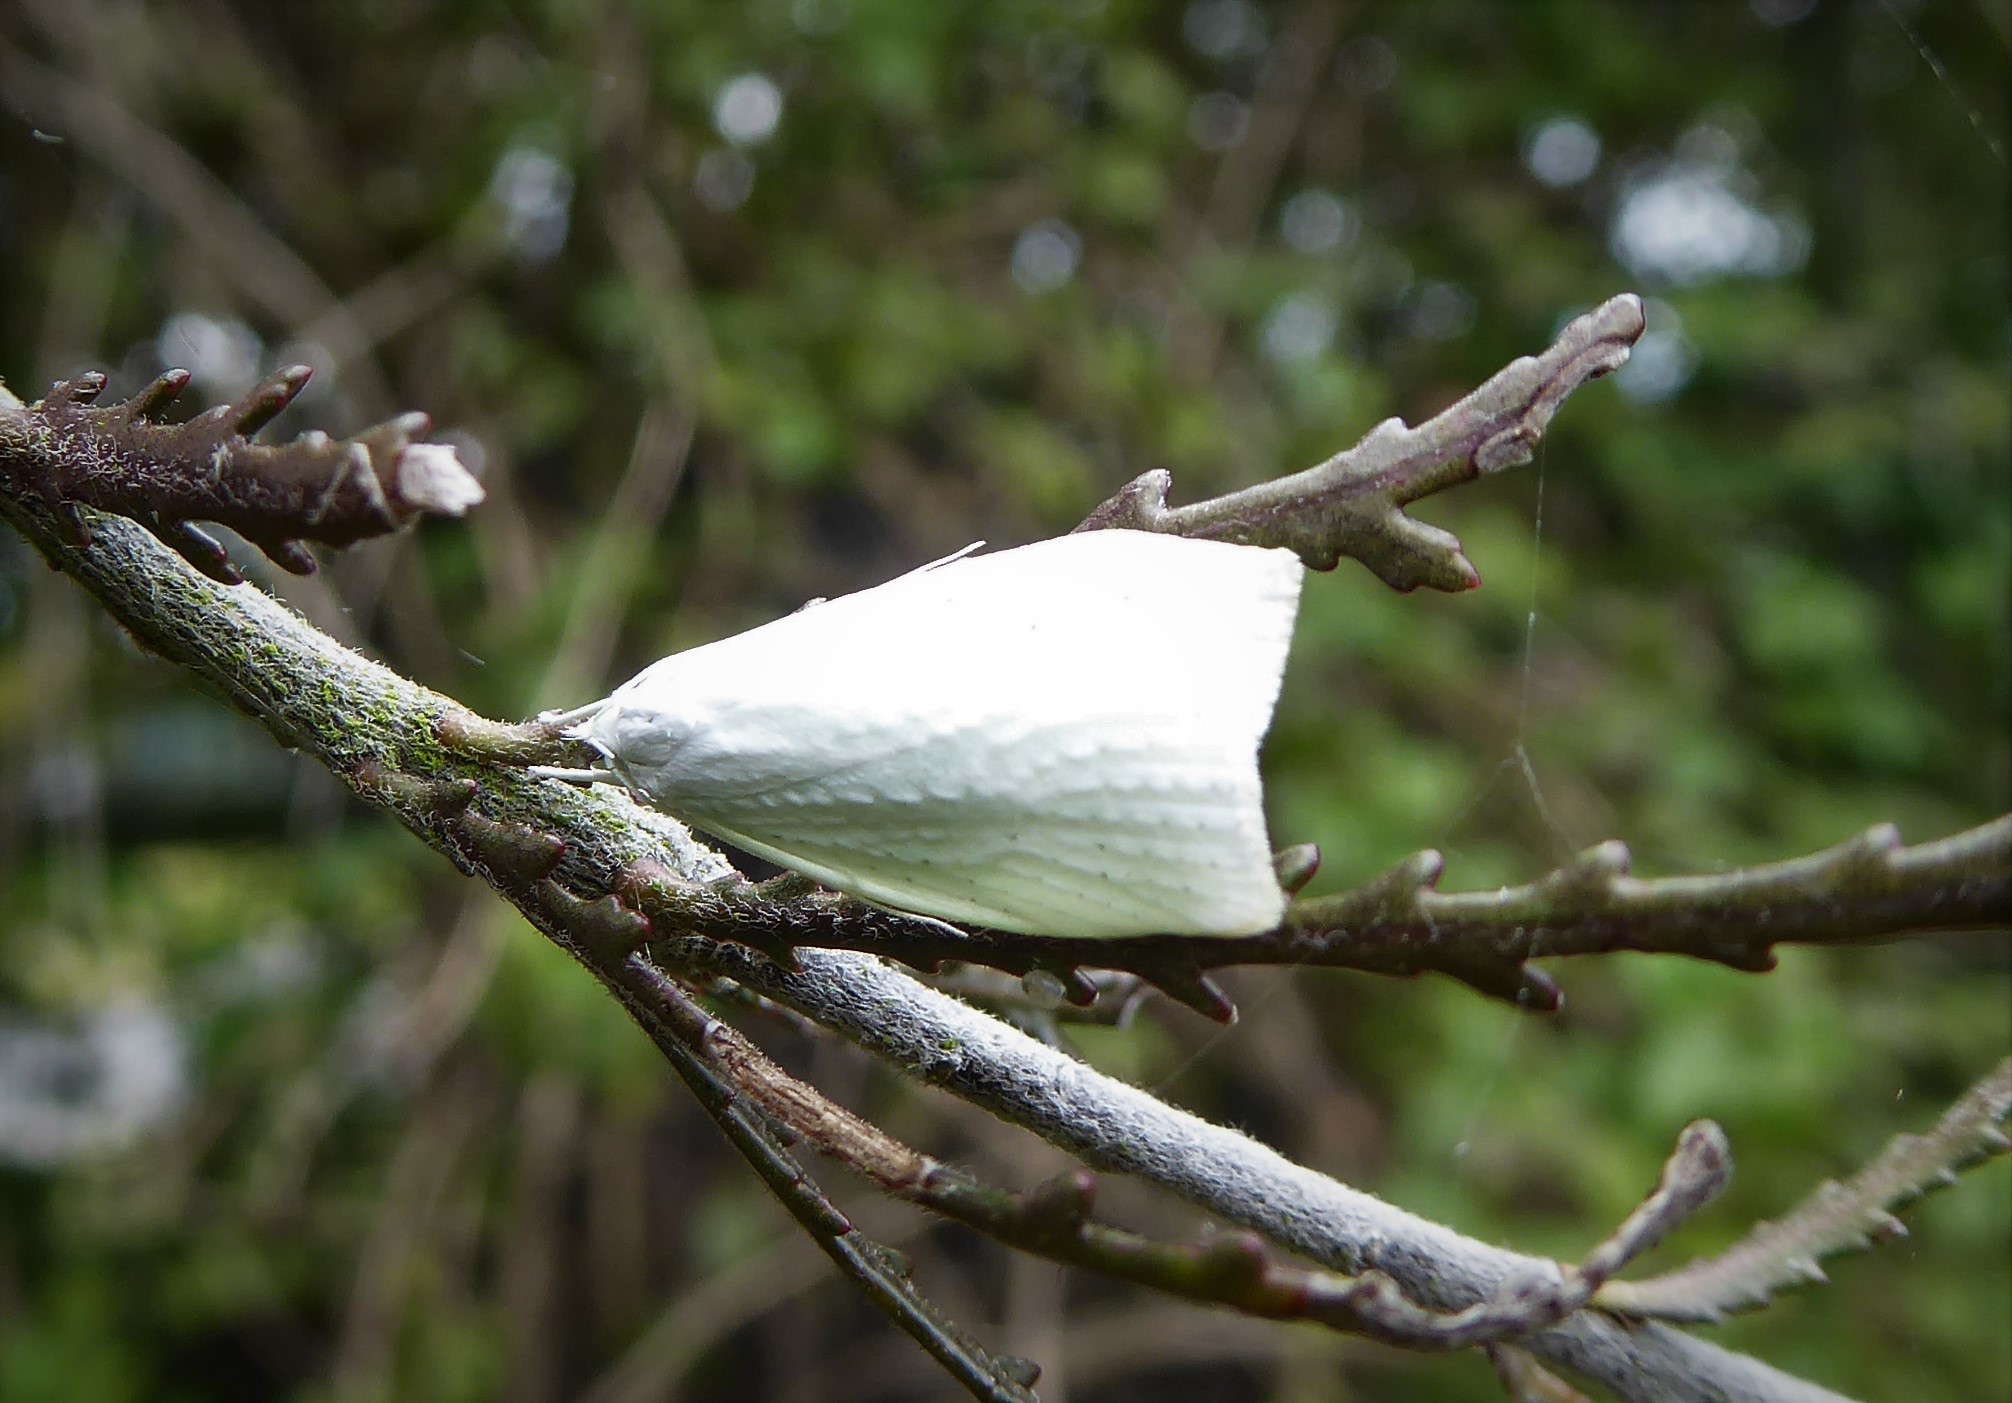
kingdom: Animalia
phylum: Arthropoda
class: Insecta
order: Lepidoptera
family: Oecophoridae
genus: Nymphostola
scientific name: Nymphostola galactina
